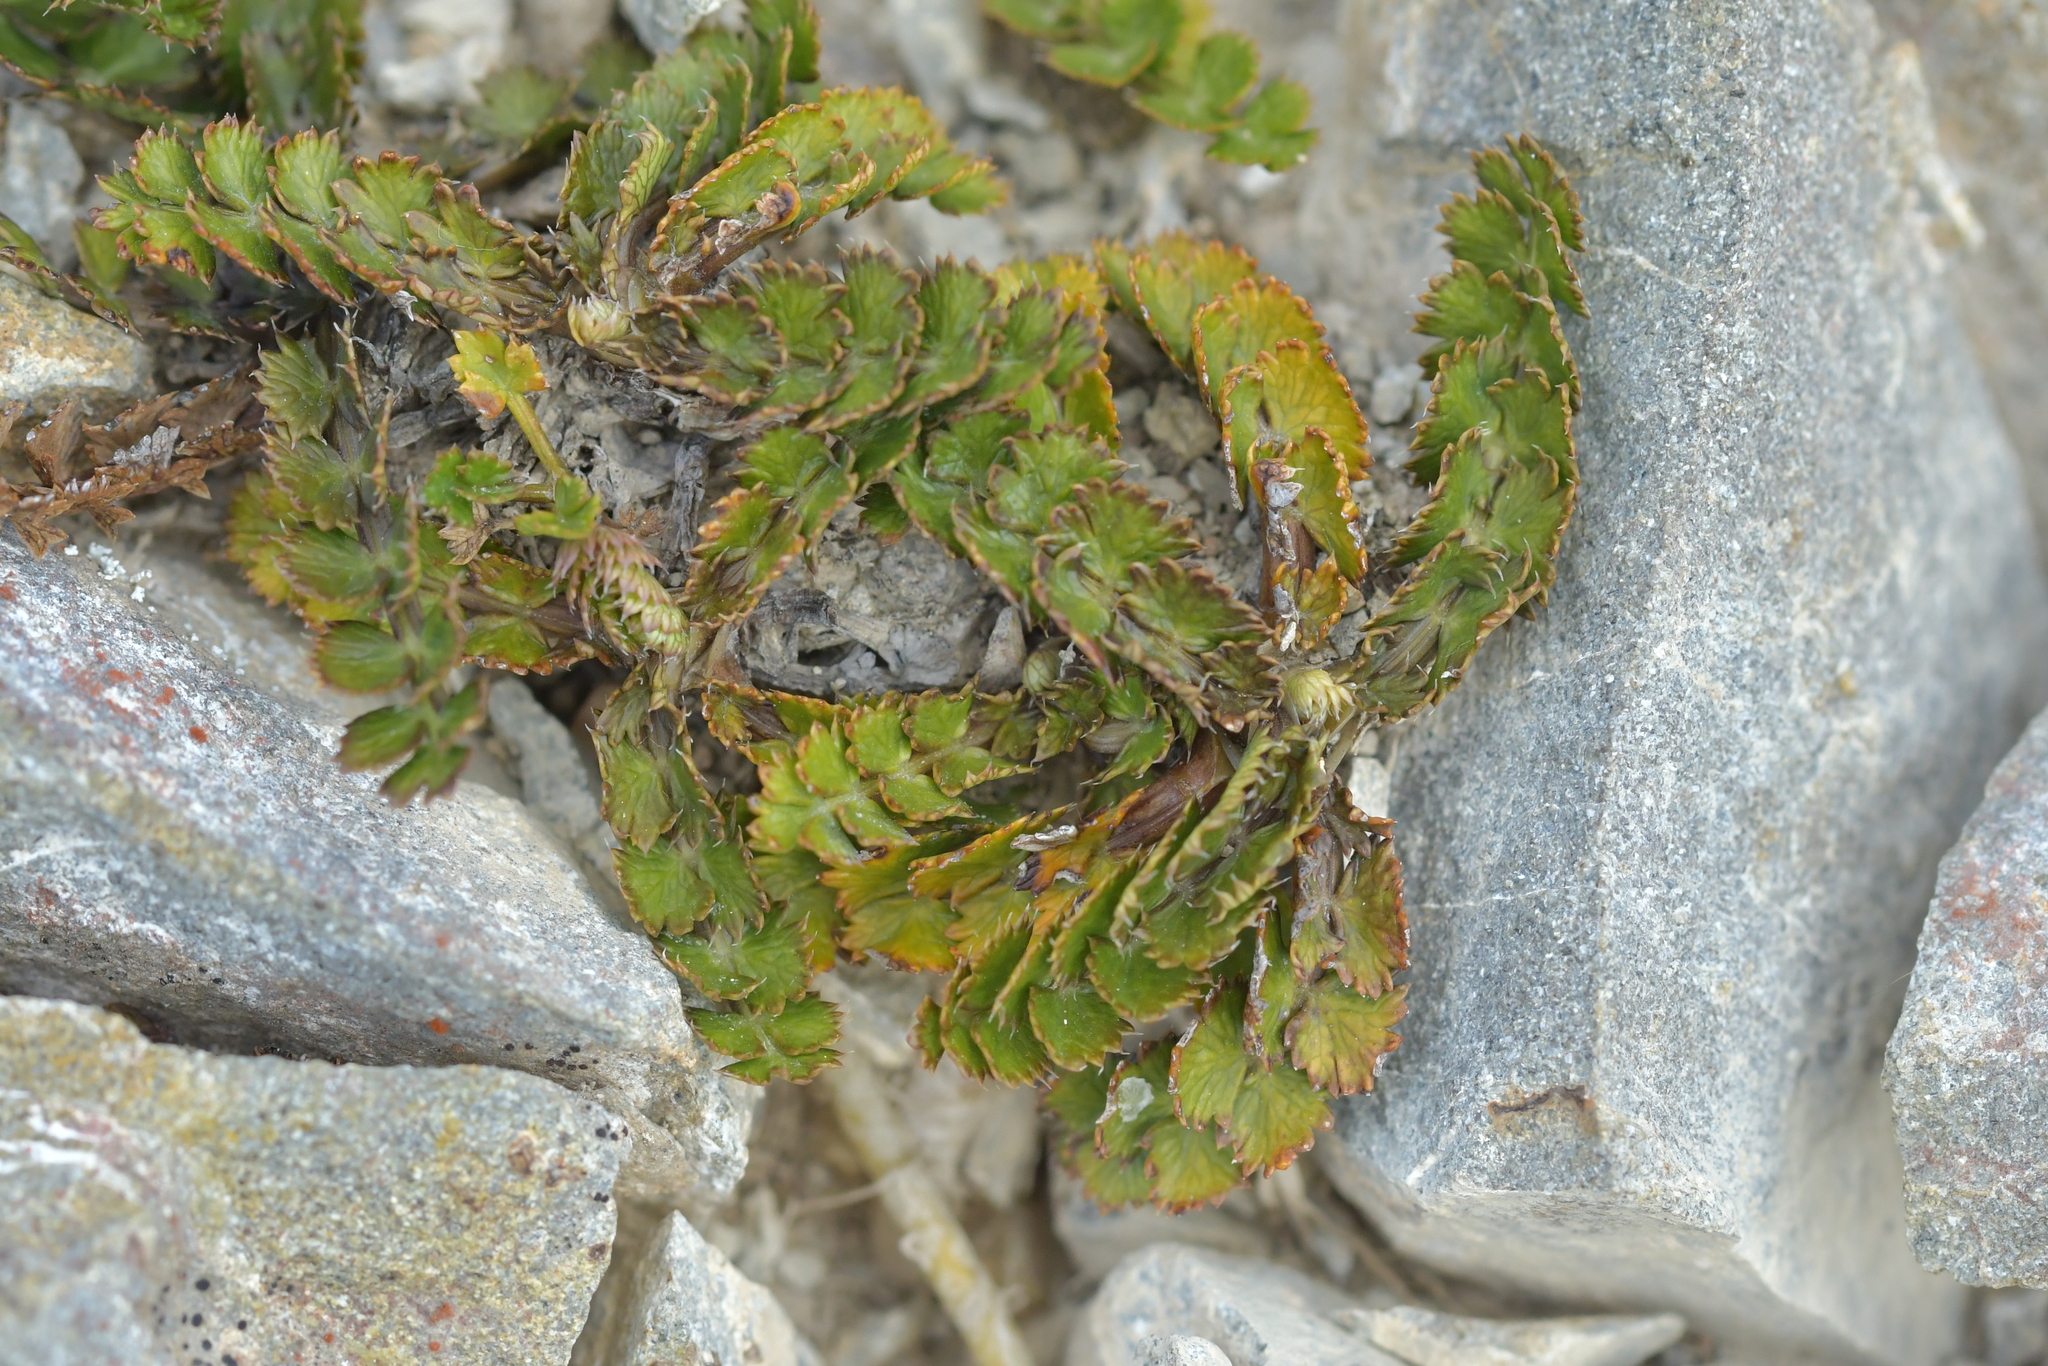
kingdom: Plantae
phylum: Tracheophyta
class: Magnoliopsida
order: Apiales
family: Apiaceae
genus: Anisotome
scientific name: Anisotome aromatica
